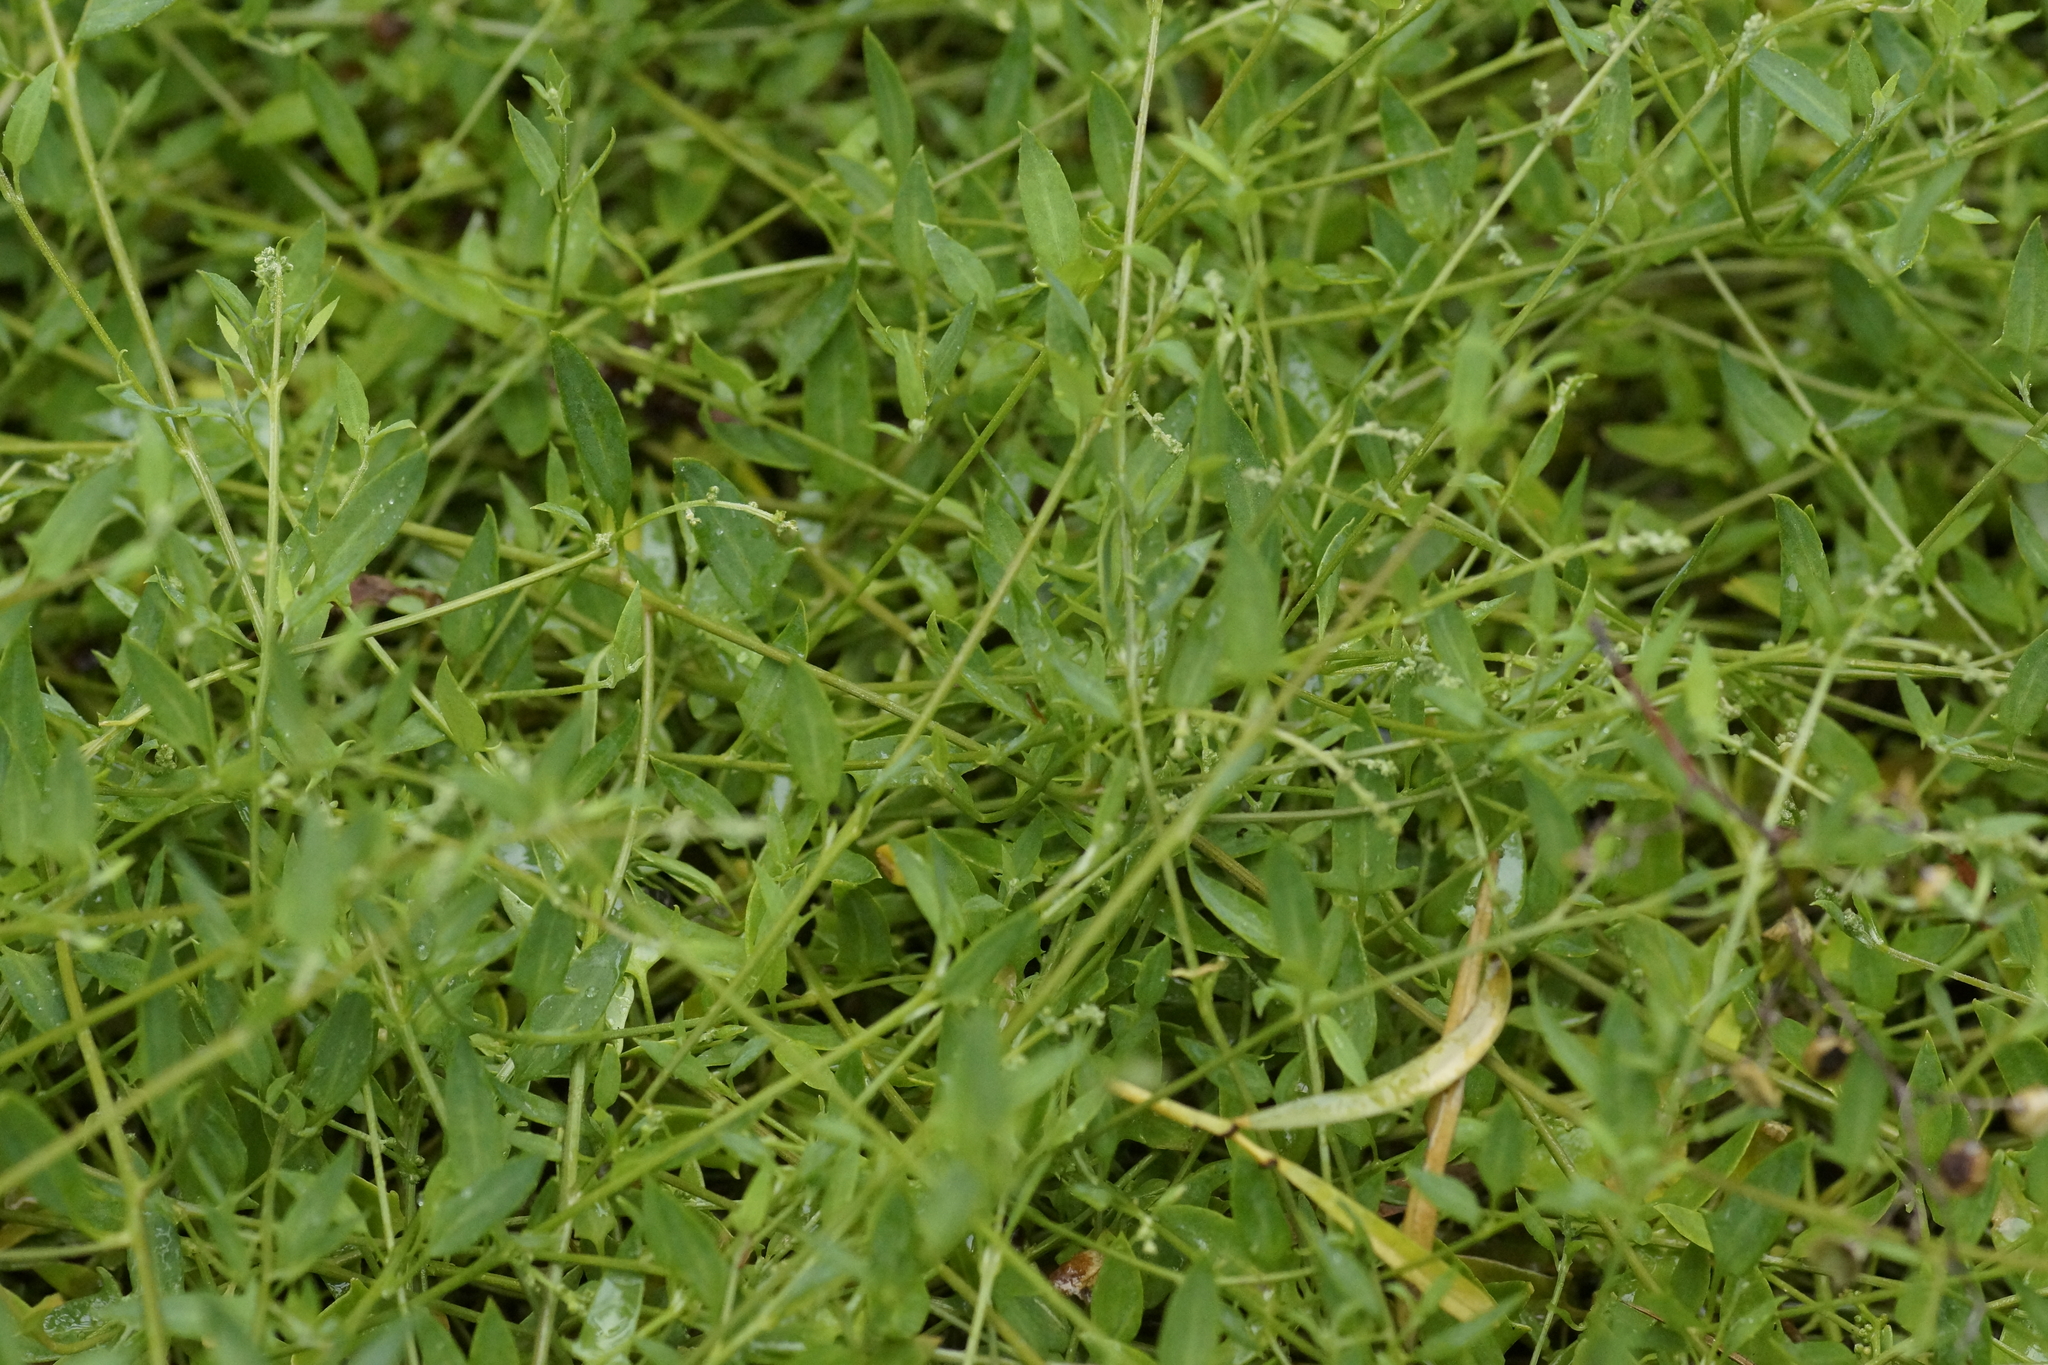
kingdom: Plantae
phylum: Tracheophyta
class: Magnoliopsida
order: Caryophyllales
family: Amaranthaceae
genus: Chenopodium
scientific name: Chenopodium nutans
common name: Climbing-saltbush
